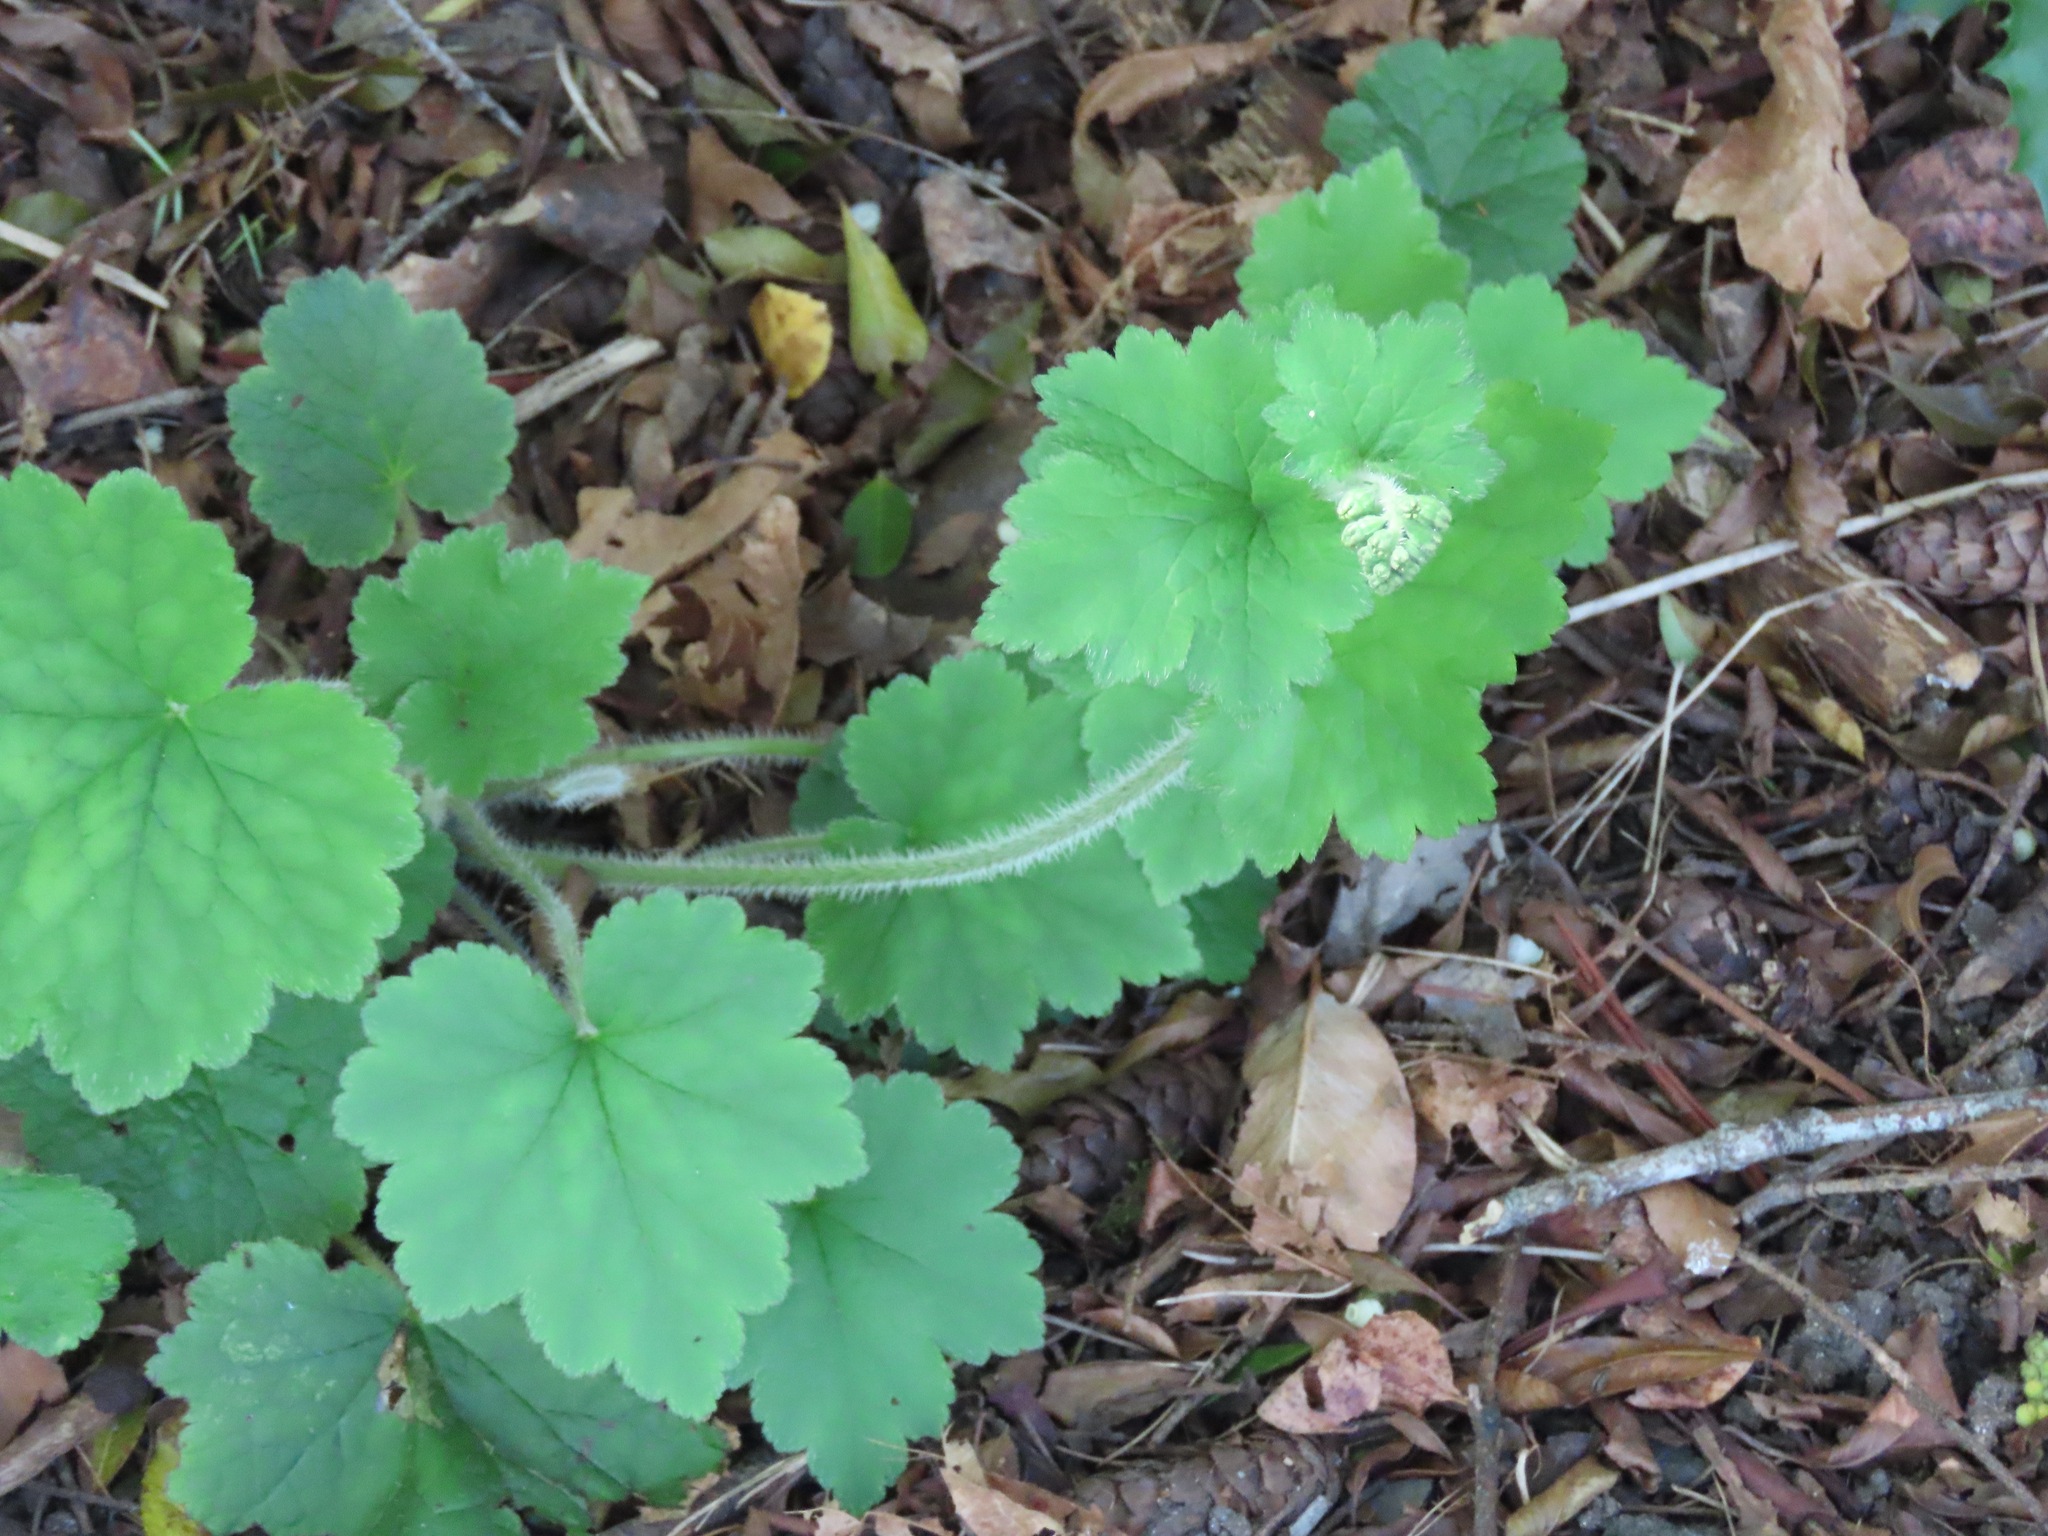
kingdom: Plantae
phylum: Tracheophyta
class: Magnoliopsida
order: Saxifragales
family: Saxifragaceae
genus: Tellima
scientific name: Tellima grandiflora
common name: Fringecups
